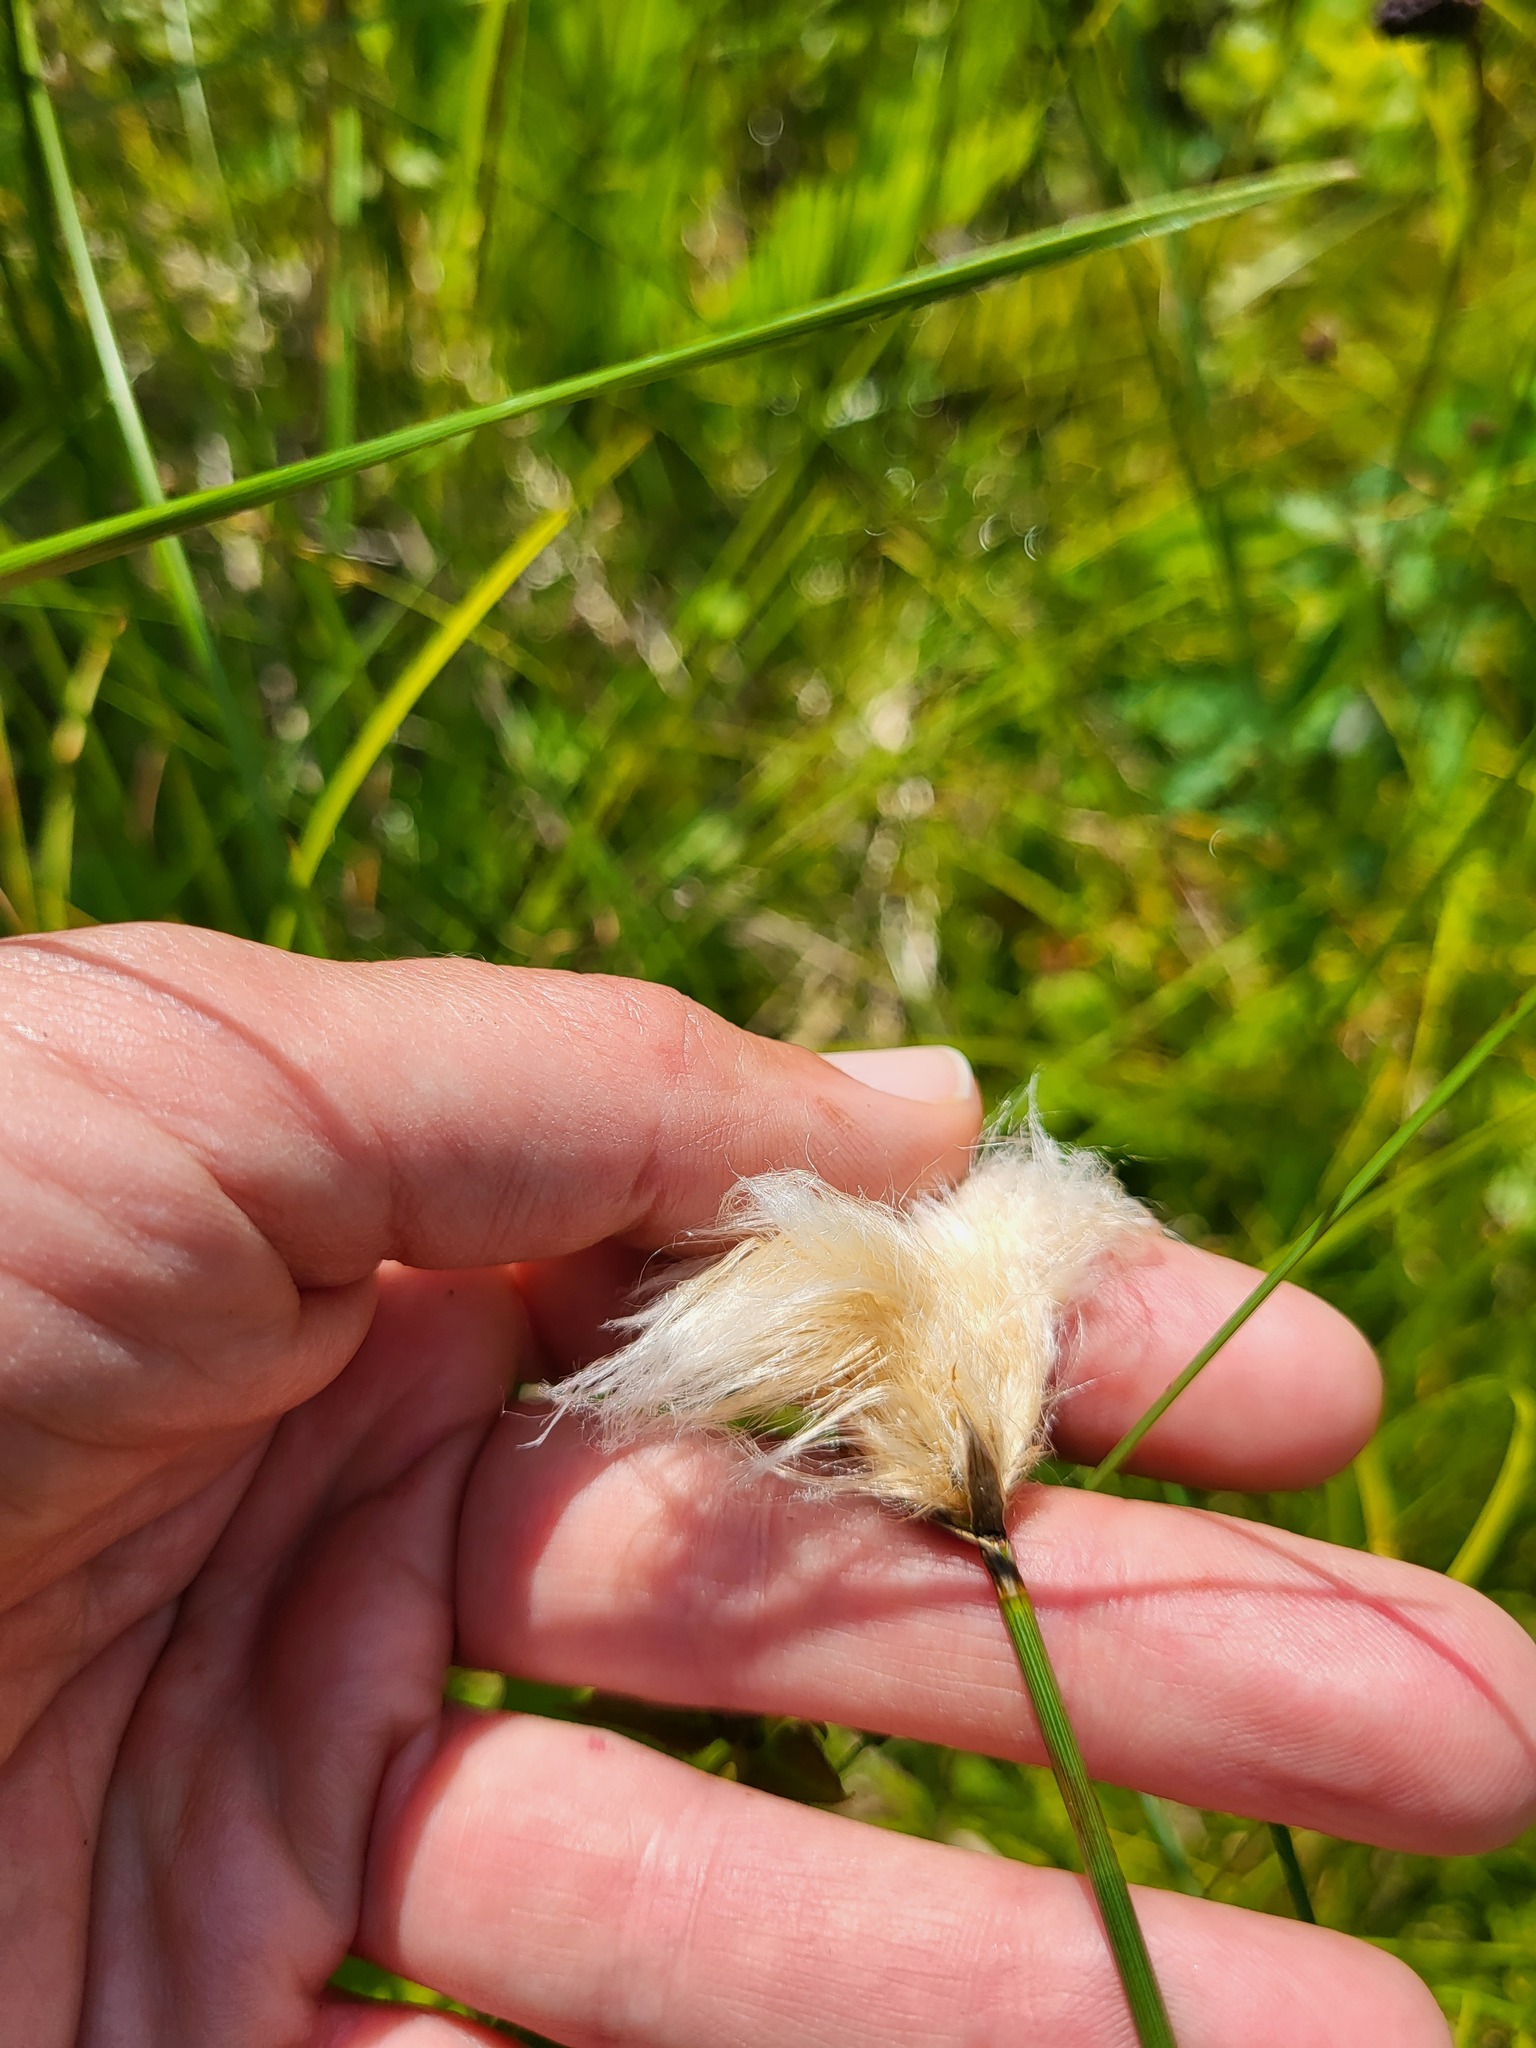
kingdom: Plantae
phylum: Tracheophyta
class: Liliopsida
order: Poales
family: Cyperaceae
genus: Eriophorum
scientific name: Eriophorum chamissonis
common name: Chamisso's cottongrass
